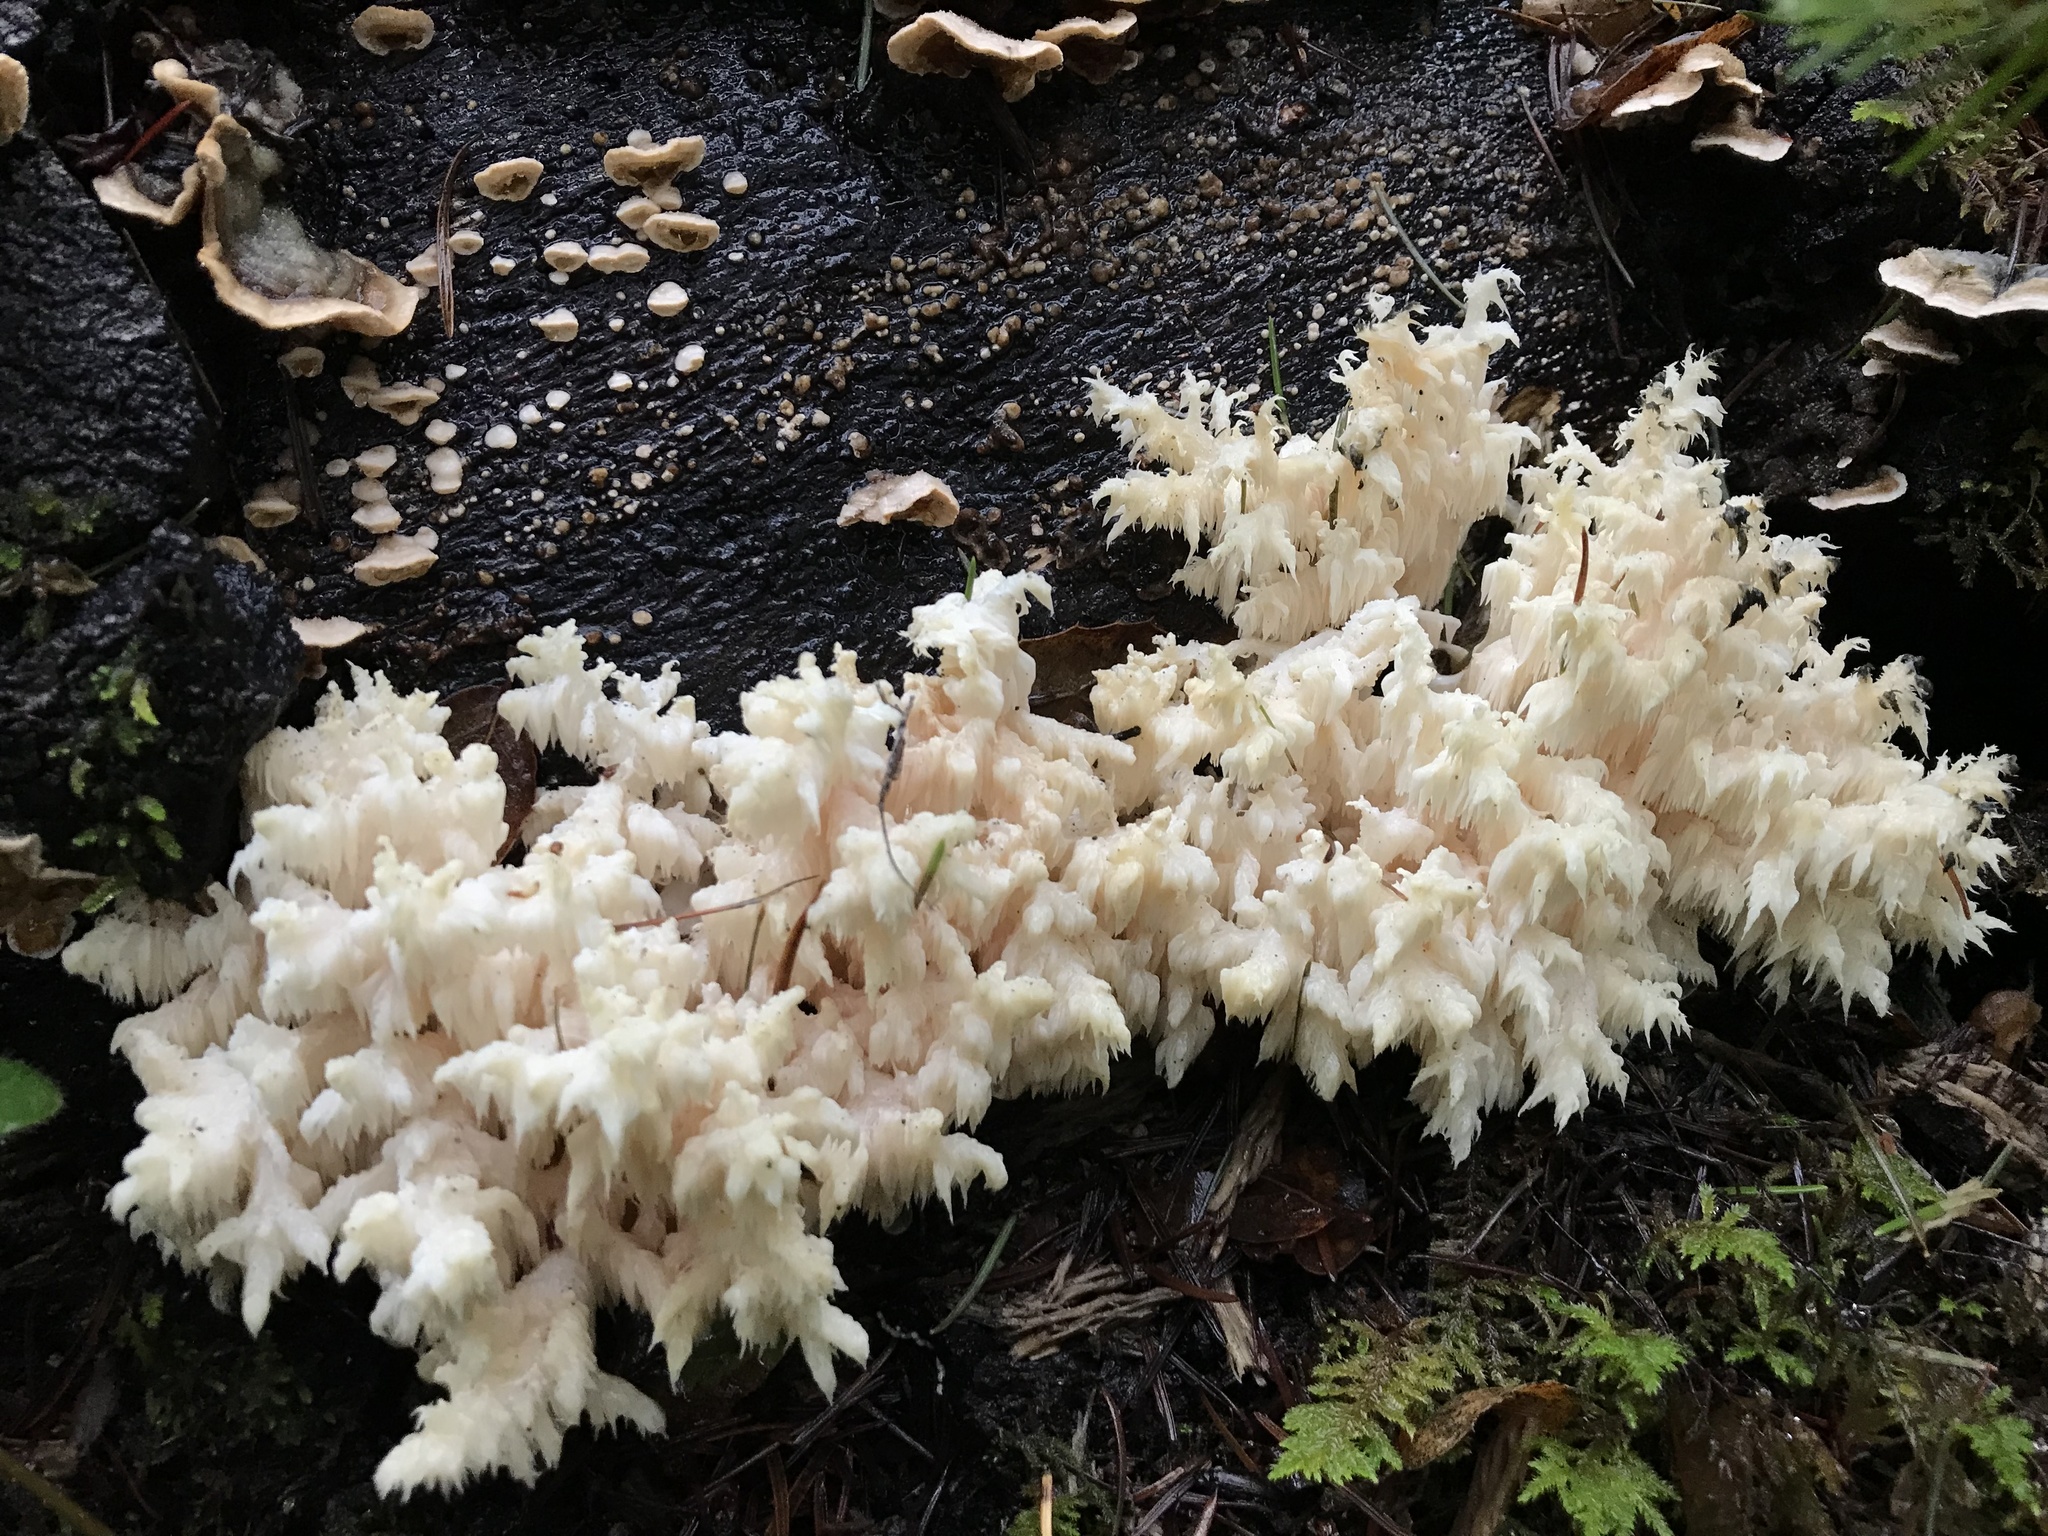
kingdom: Fungi
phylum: Basidiomycota
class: Agaricomycetes
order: Russulales
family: Hericiaceae
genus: Hericium
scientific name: Hericium coralloides
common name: Coral tooth
